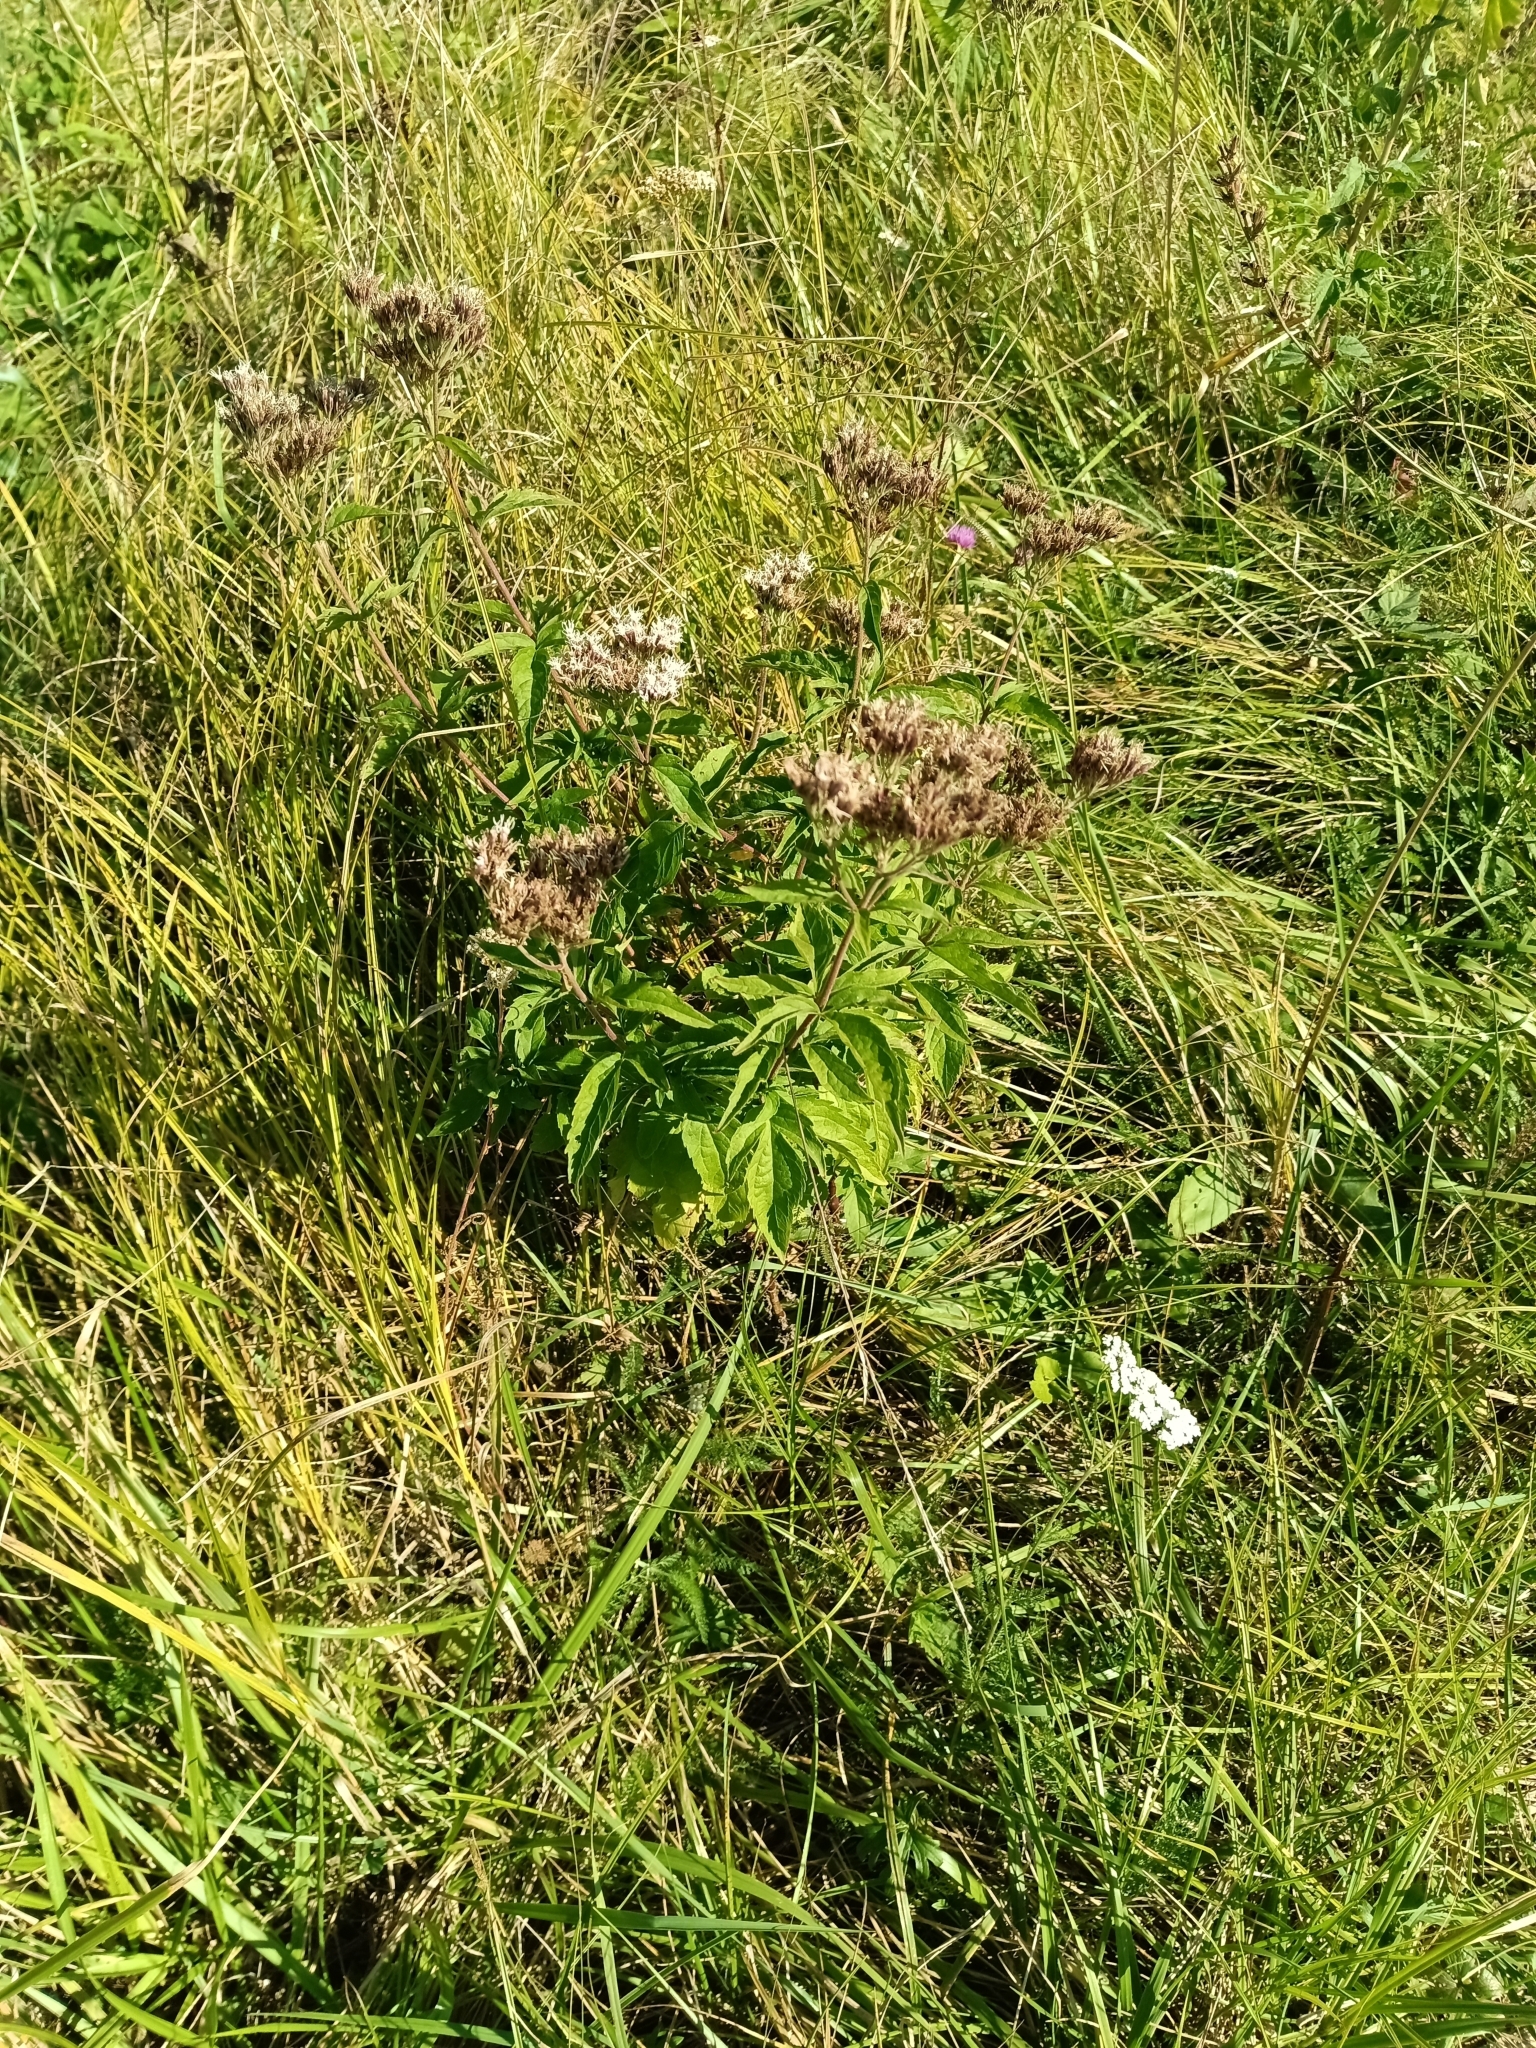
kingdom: Plantae
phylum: Tracheophyta
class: Magnoliopsida
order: Asterales
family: Asteraceae
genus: Eupatorium
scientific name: Eupatorium cannabinum
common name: Hemp-agrimony
